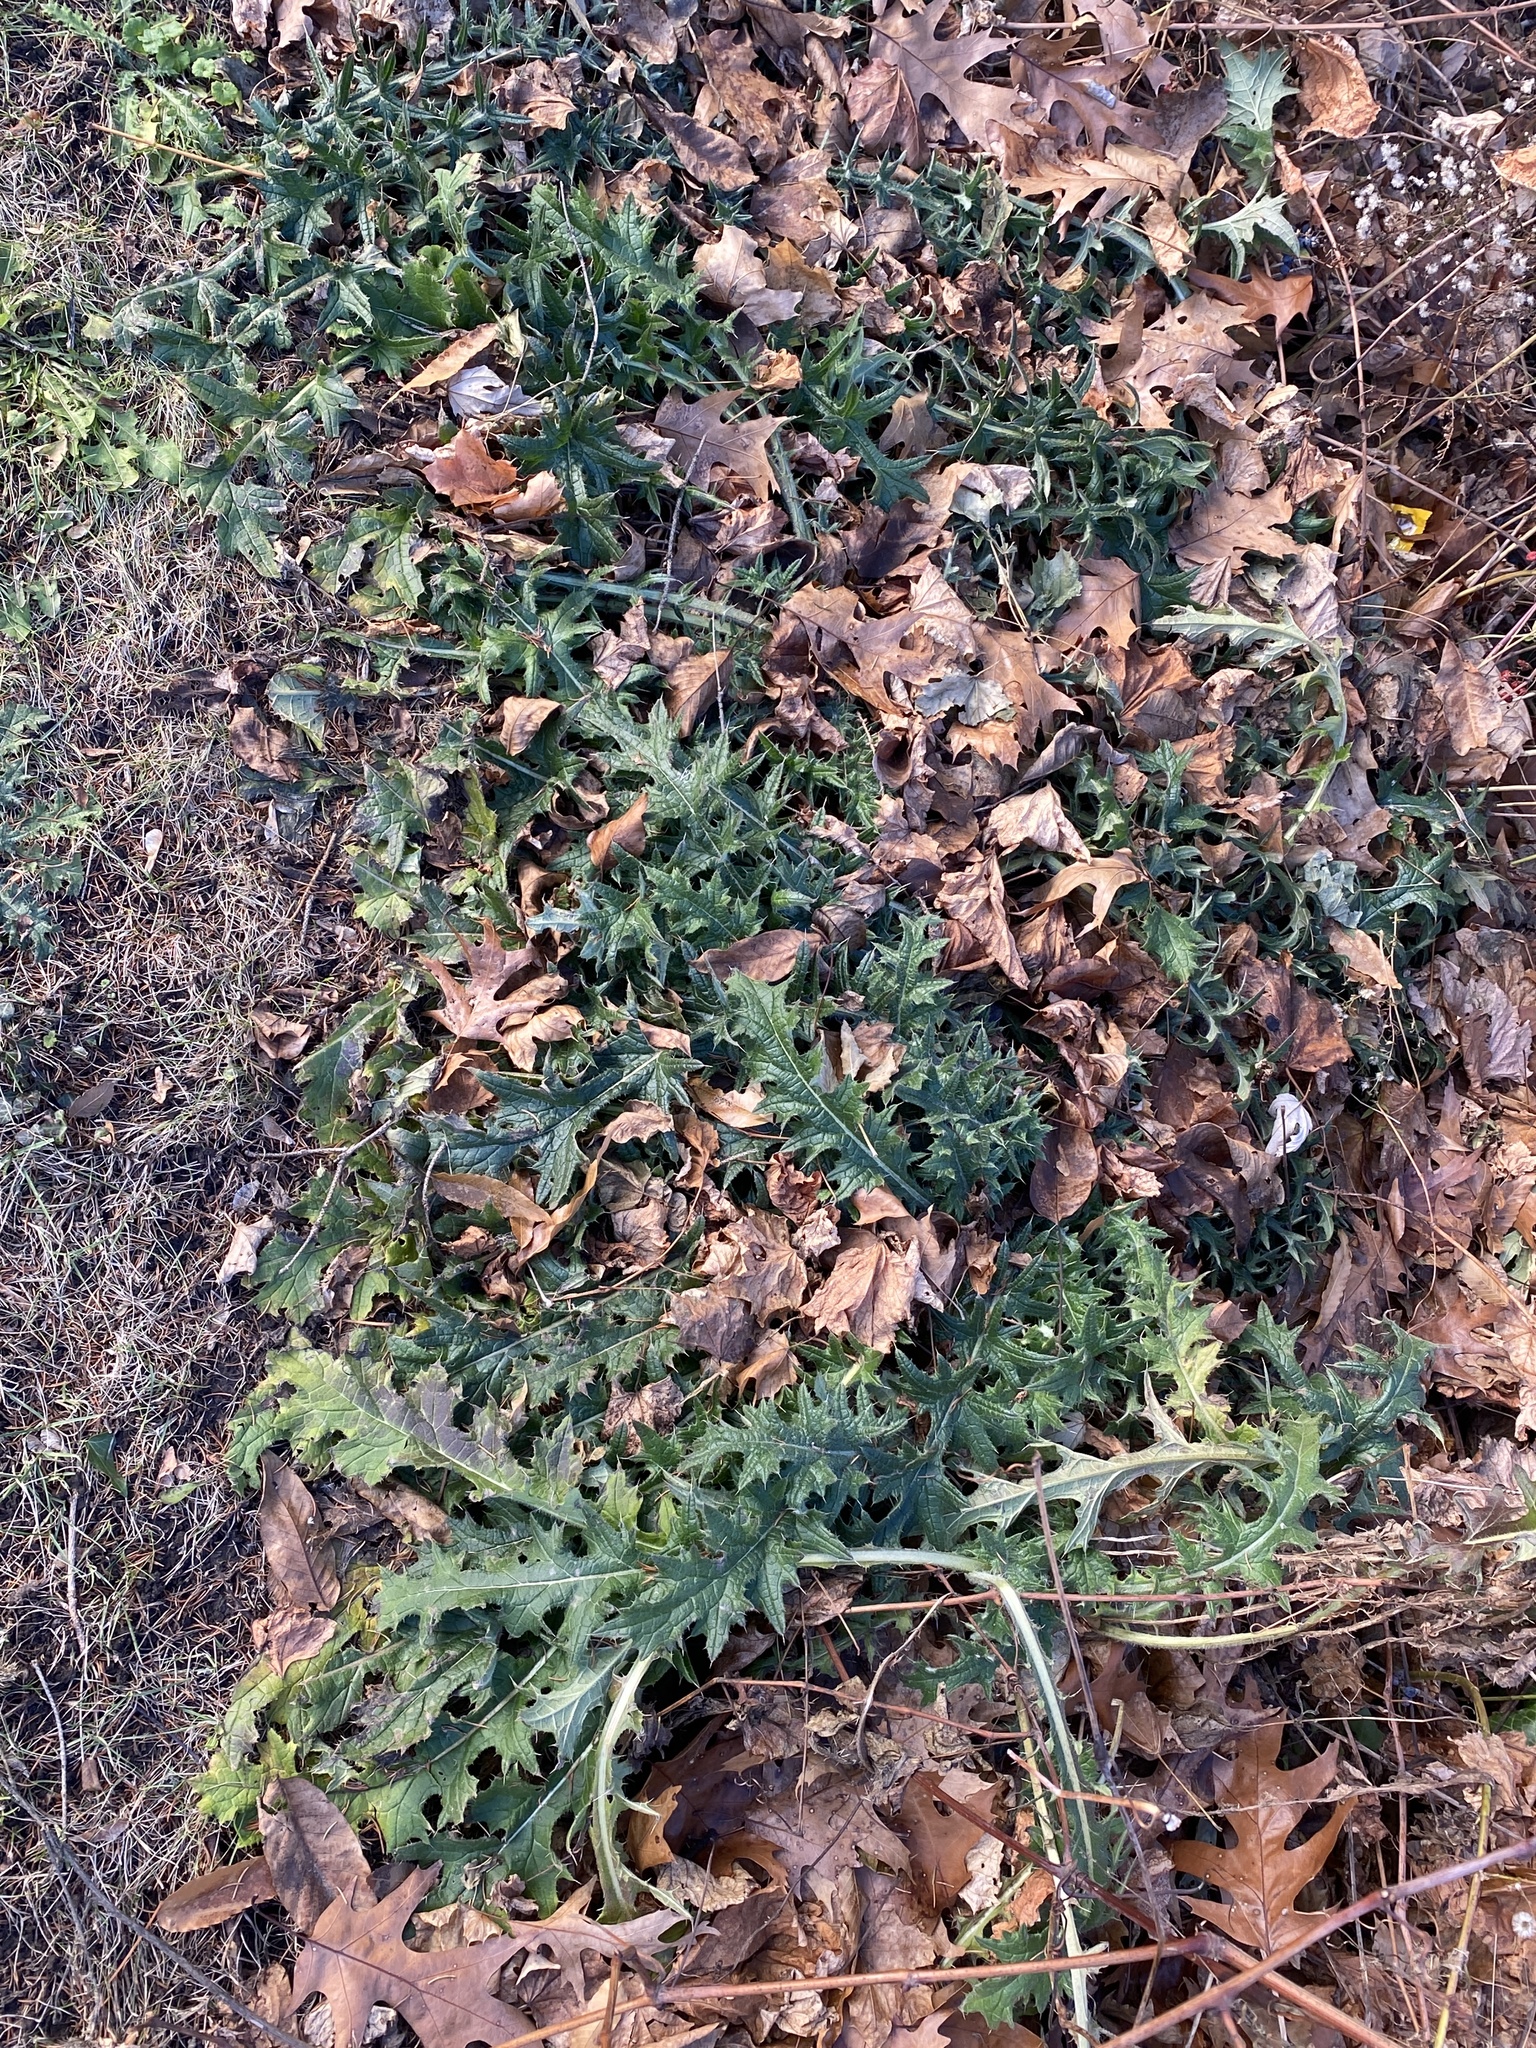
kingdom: Plantae
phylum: Tracheophyta
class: Magnoliopsida
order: Asterales
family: Asteraceae
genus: Cirsium
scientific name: Cirsium vulgare
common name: Bull thistle
